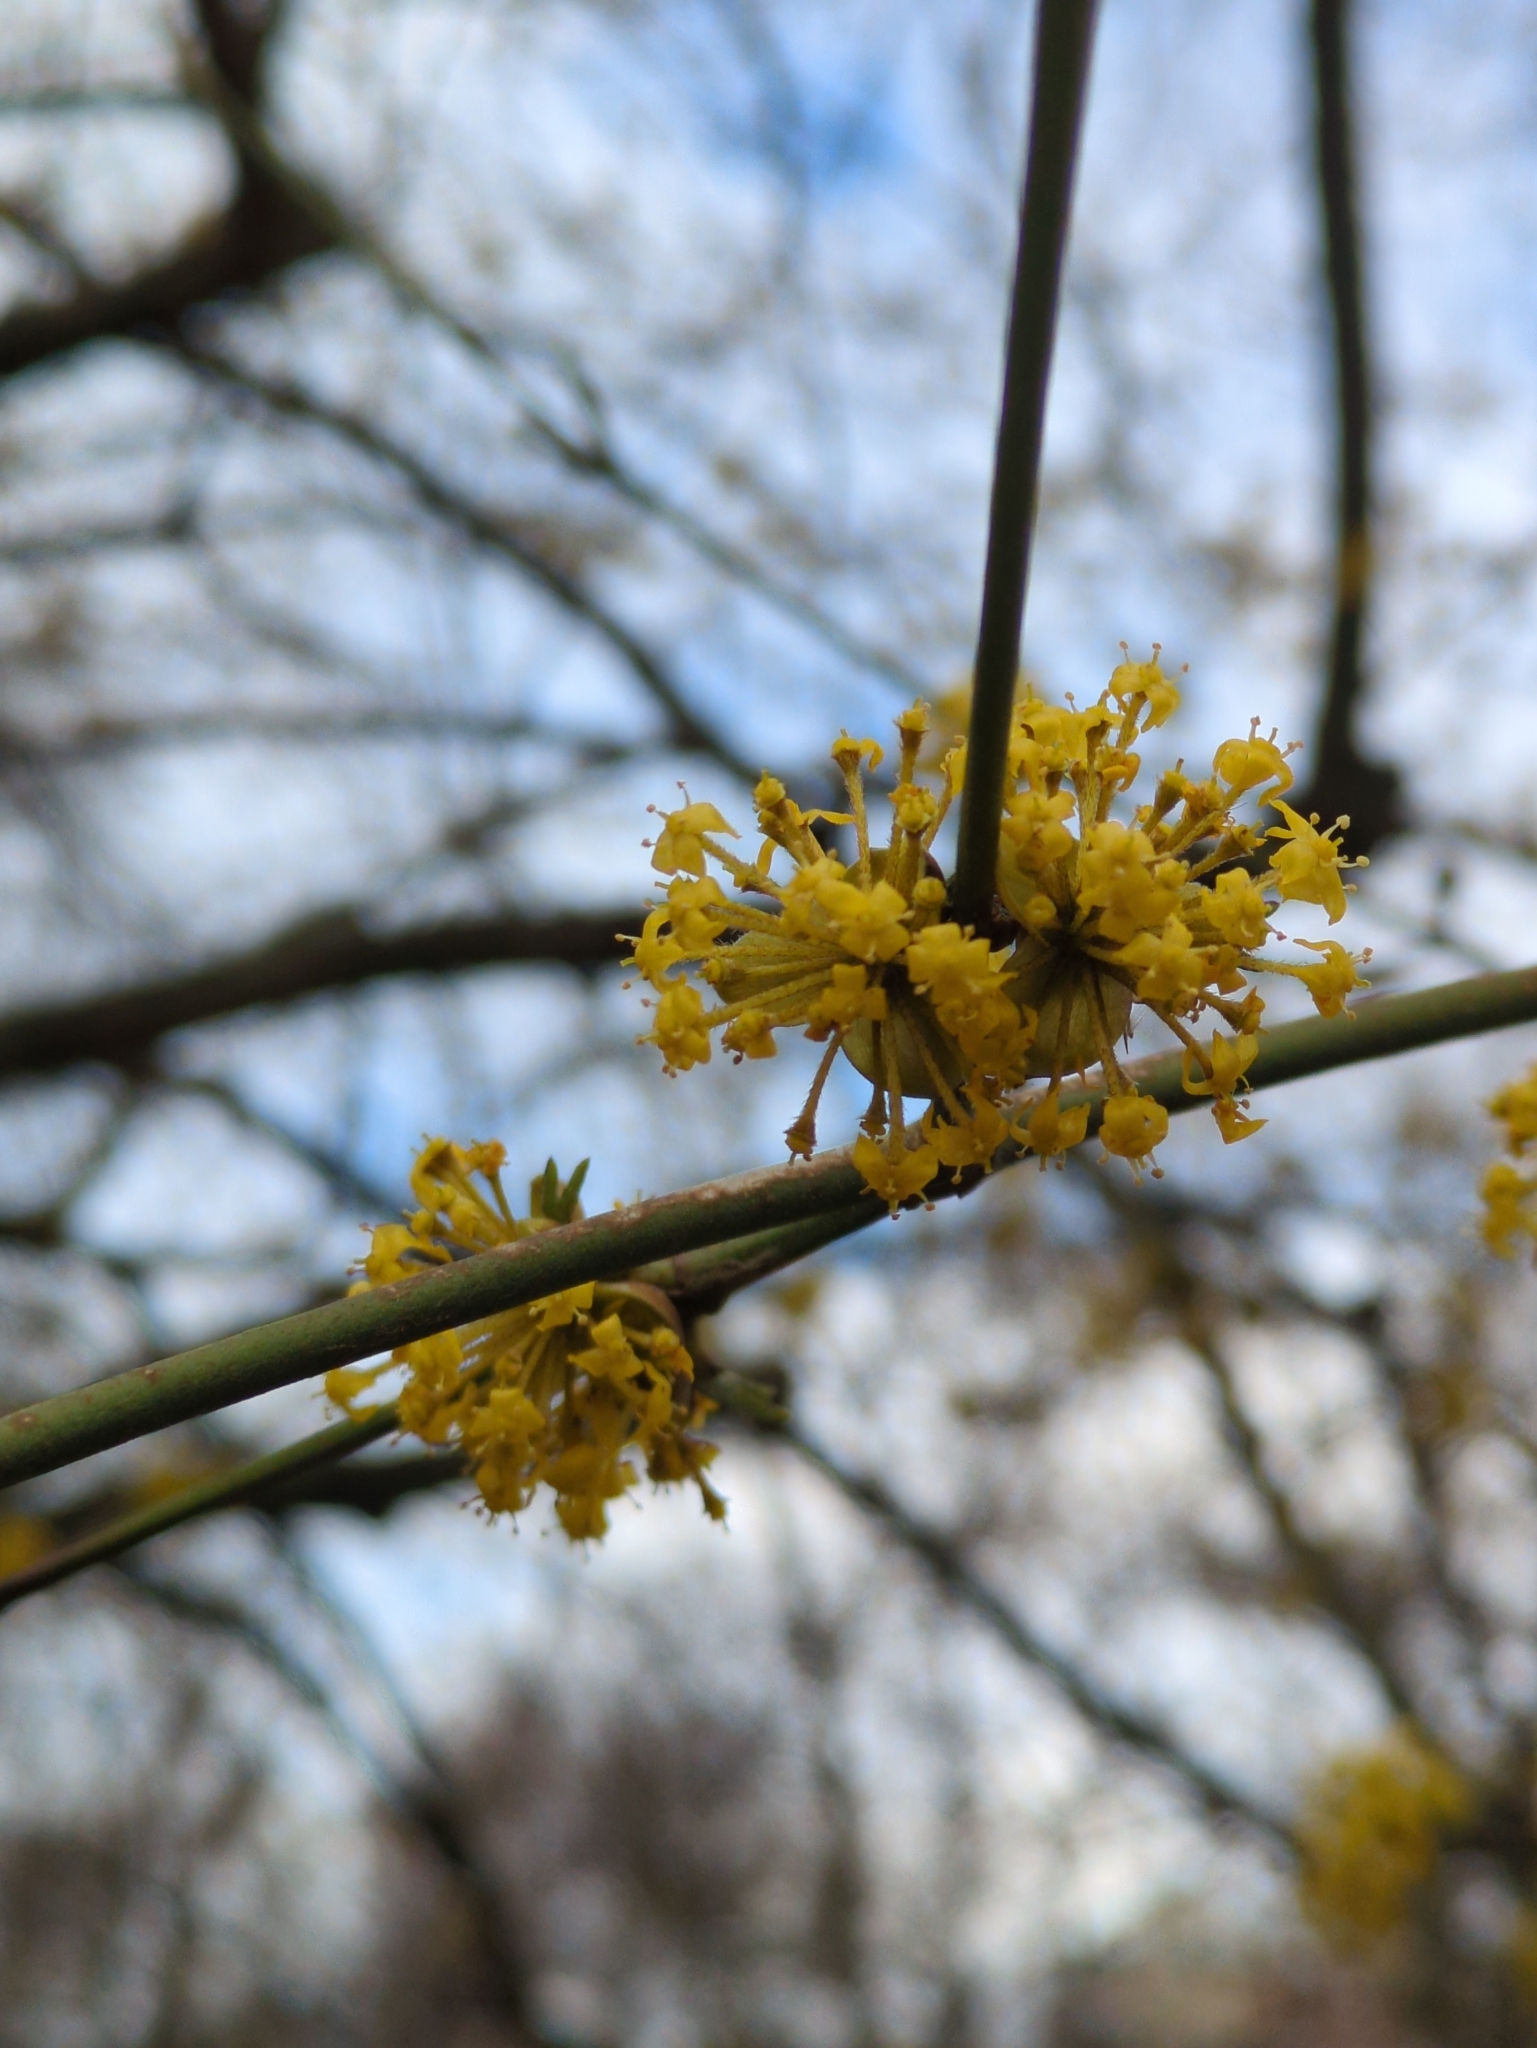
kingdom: Plantae
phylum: Tracheophyta
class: Magnoliopsida
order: Cornales
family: Cornaceae
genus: Cornus
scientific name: Cornus mas
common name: Cornelian-cherry
